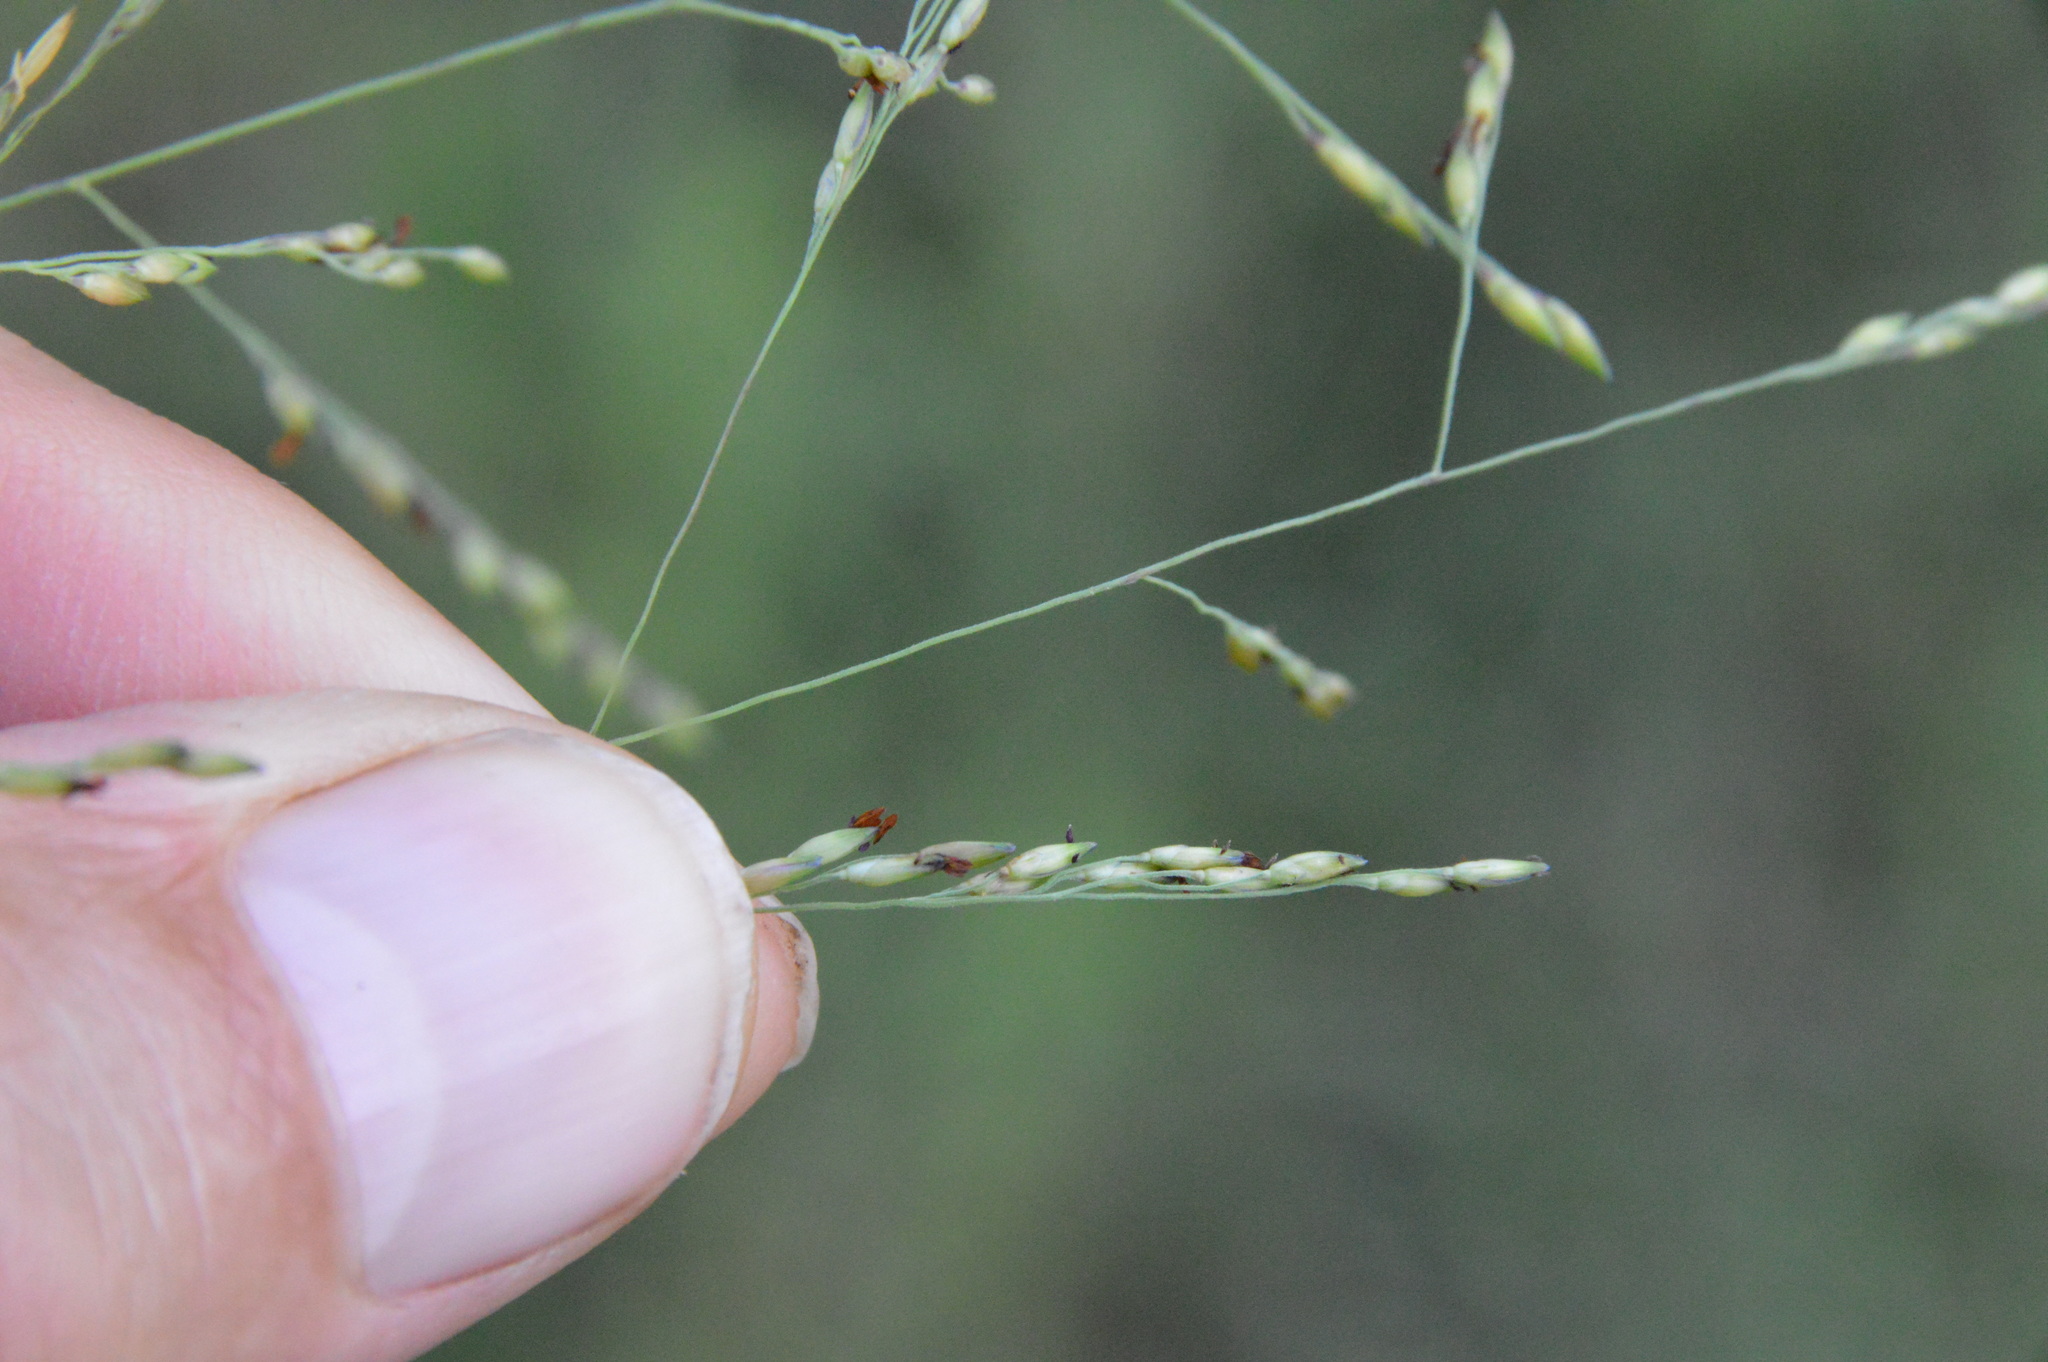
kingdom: Plantae
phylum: Tracheophyta
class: Liliopsida
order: Poales
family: Poaceae
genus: Panicum
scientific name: Panicum dichotomiflorum
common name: Autumn millet
